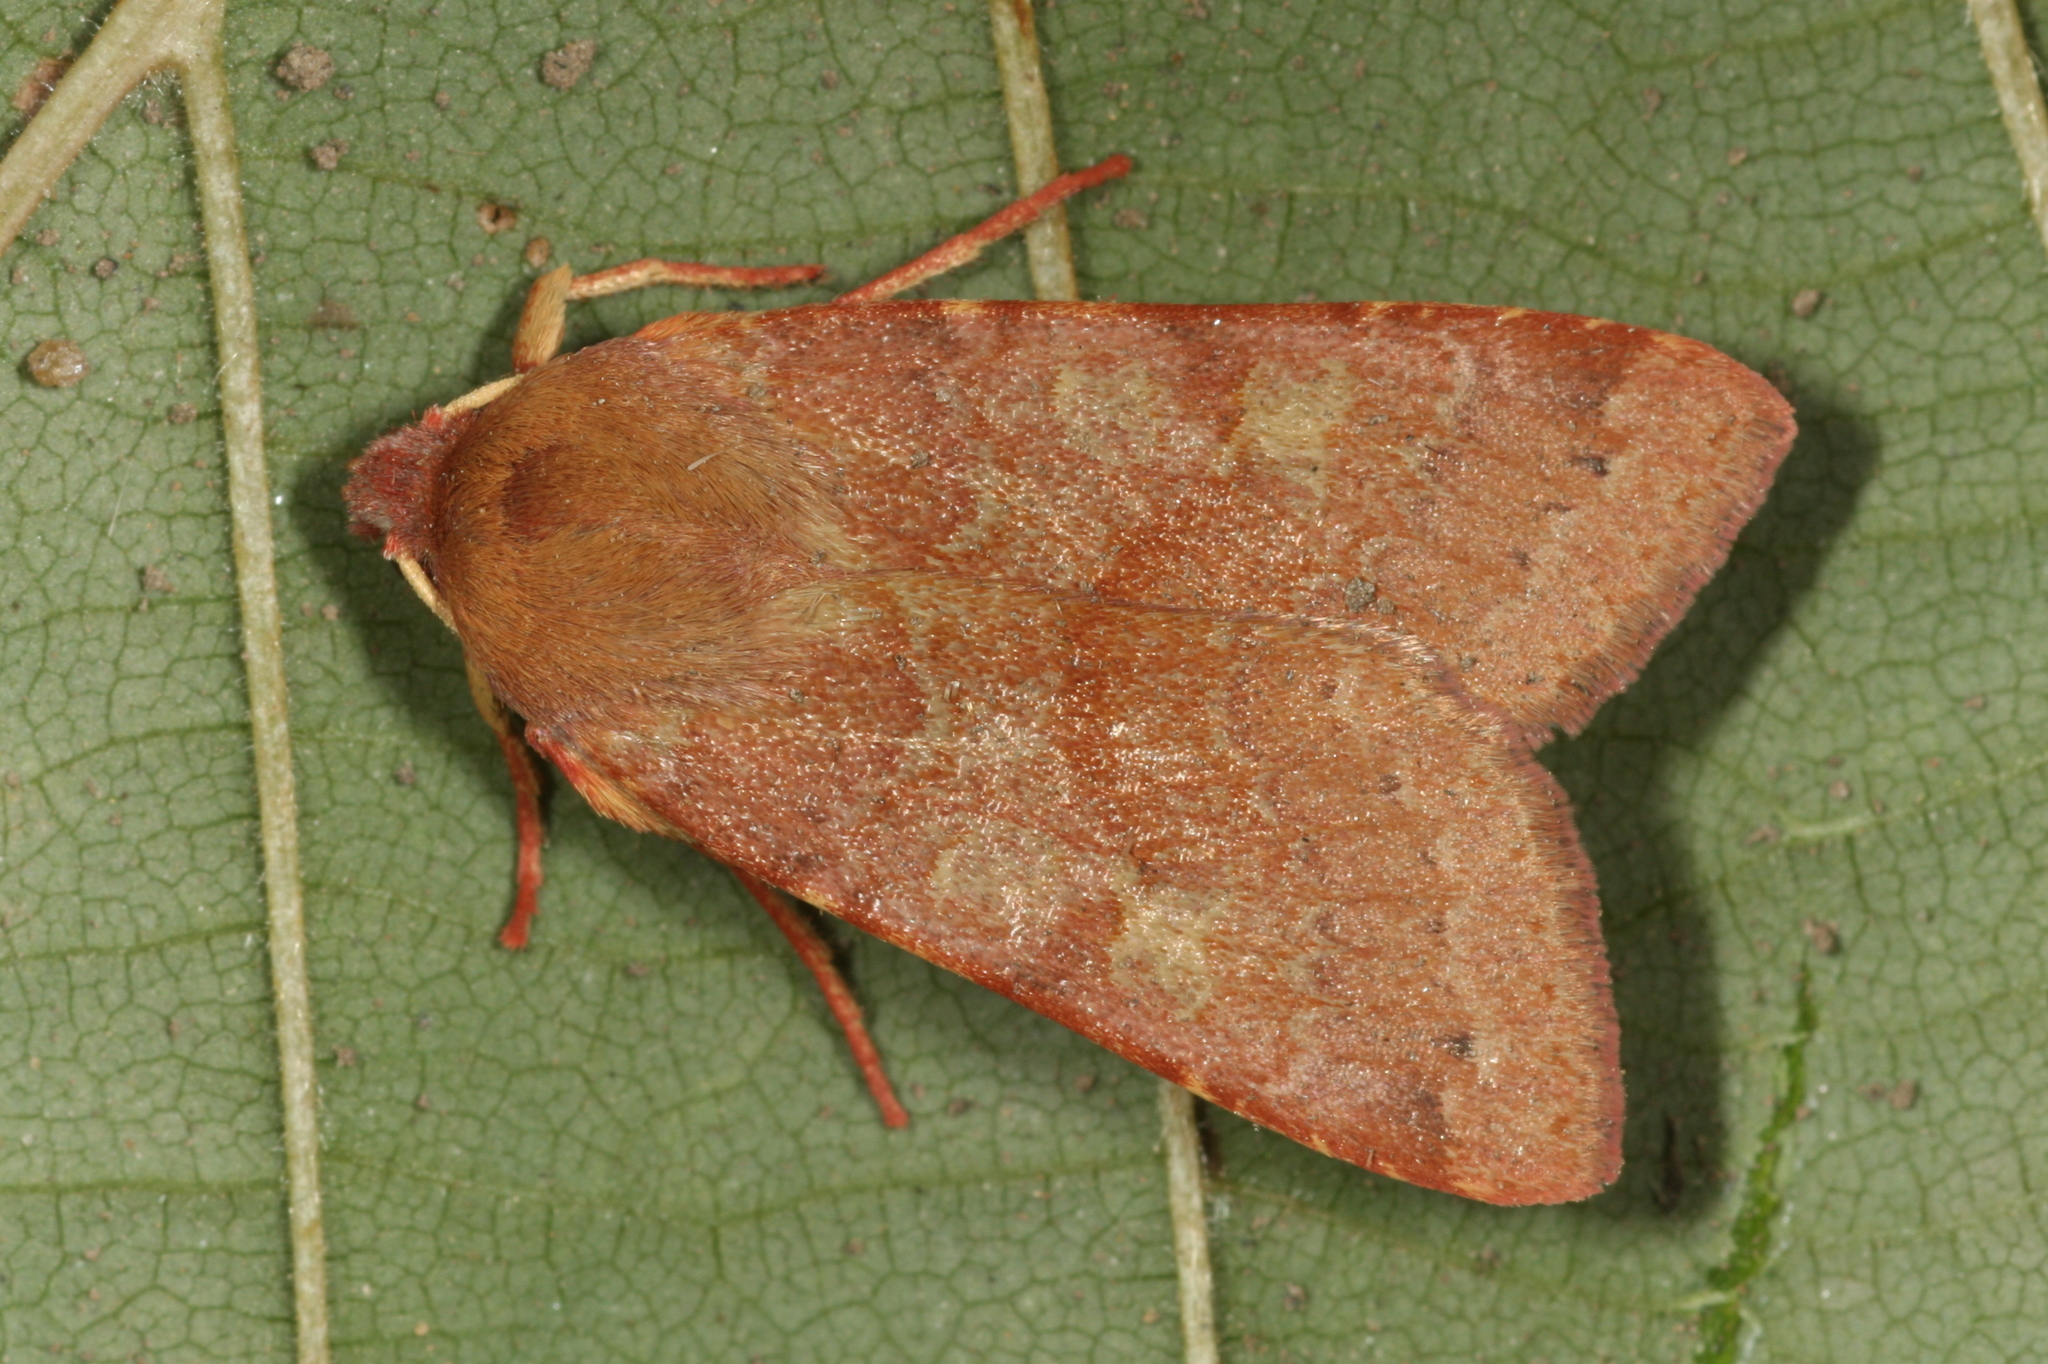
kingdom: Animalia
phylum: Arthropoda
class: Insecta
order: Lepidoptera
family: Noctuidae
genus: Agrochola
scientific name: Agrochola helvola
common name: Flounced chestnut
